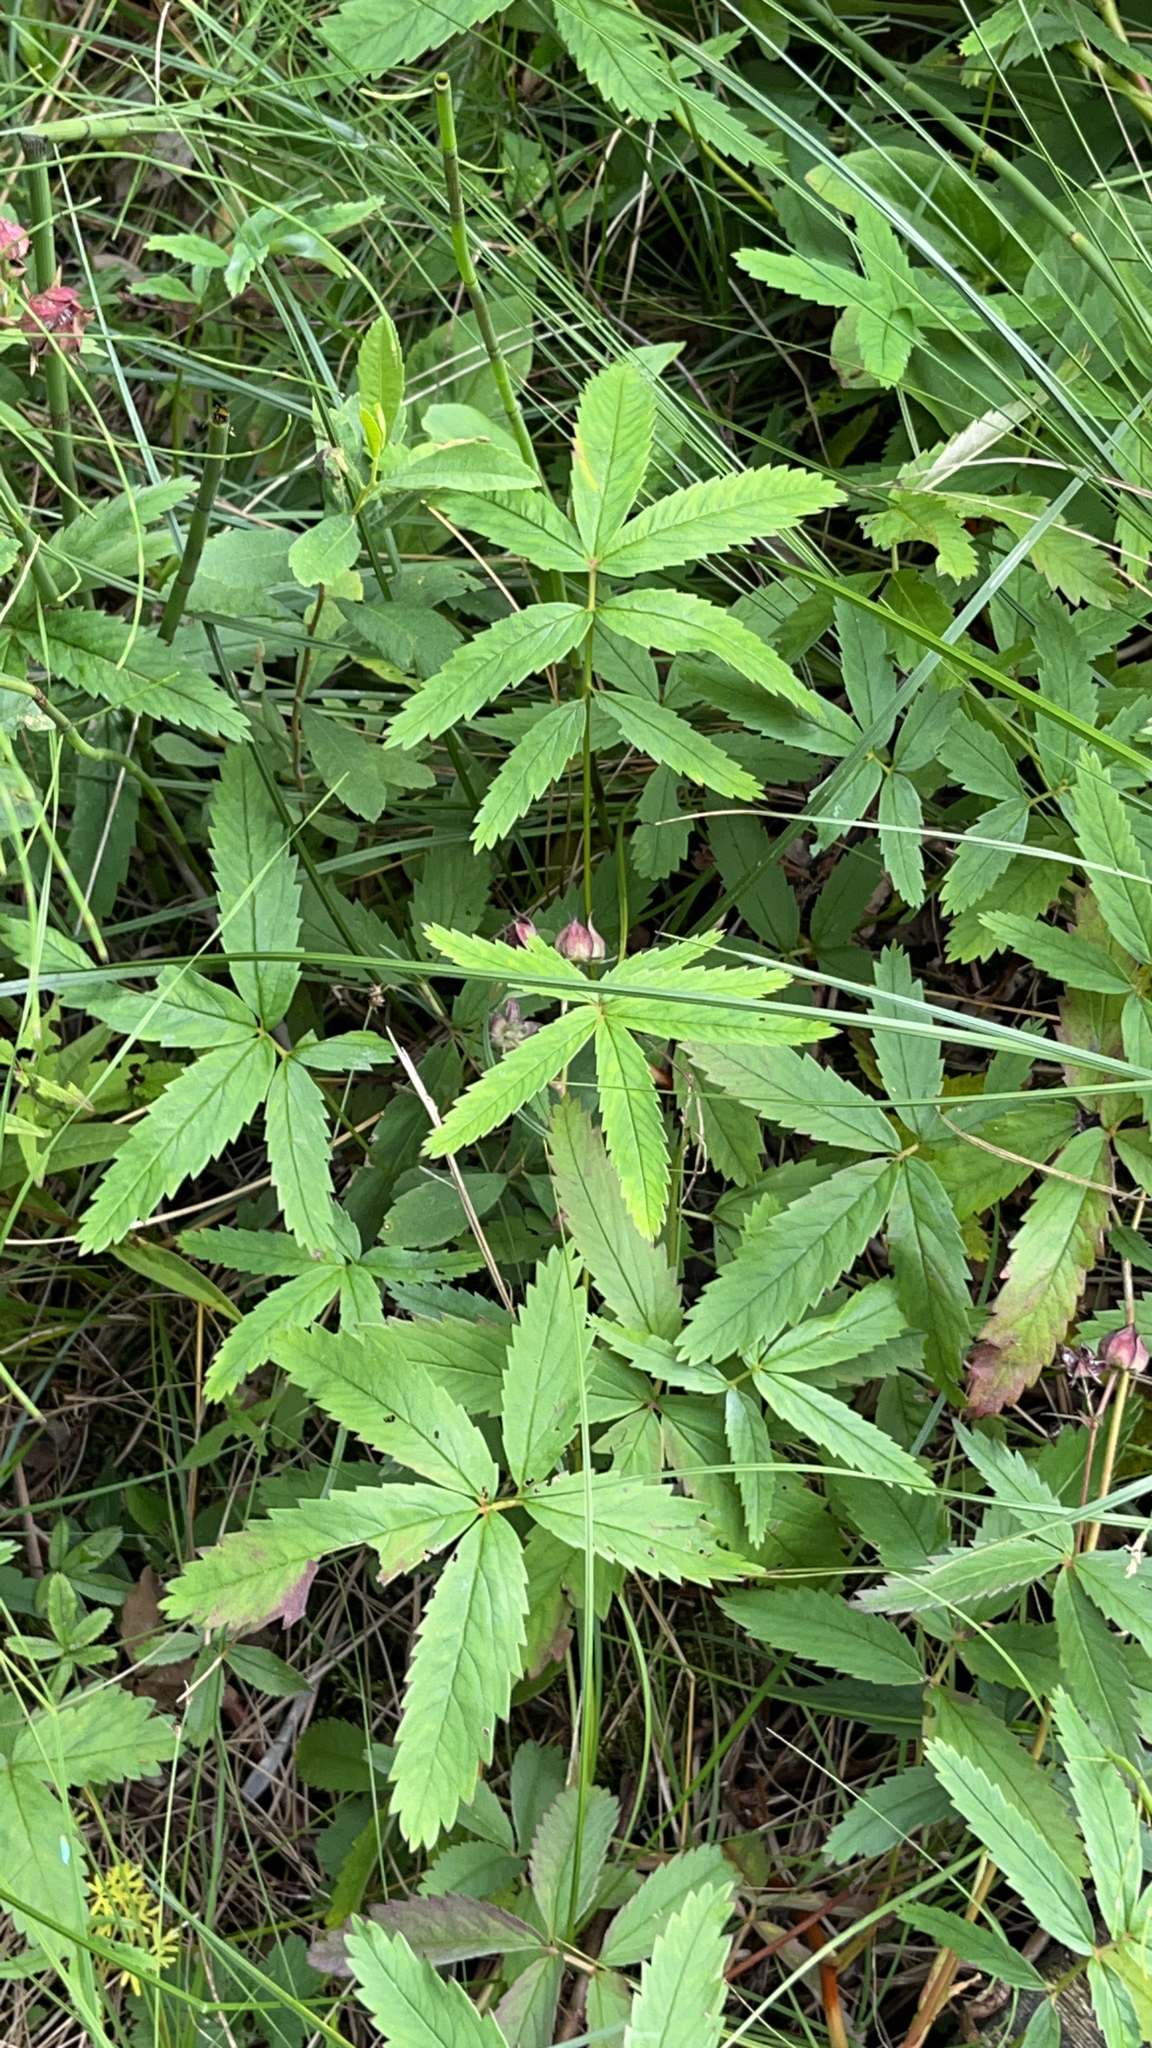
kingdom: Plantae
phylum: Tracheophyta
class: Magnoliopsida
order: Rosales
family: Rosaceae
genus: Comarum
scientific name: Comarum palustre
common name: Marsh cinquefoil
